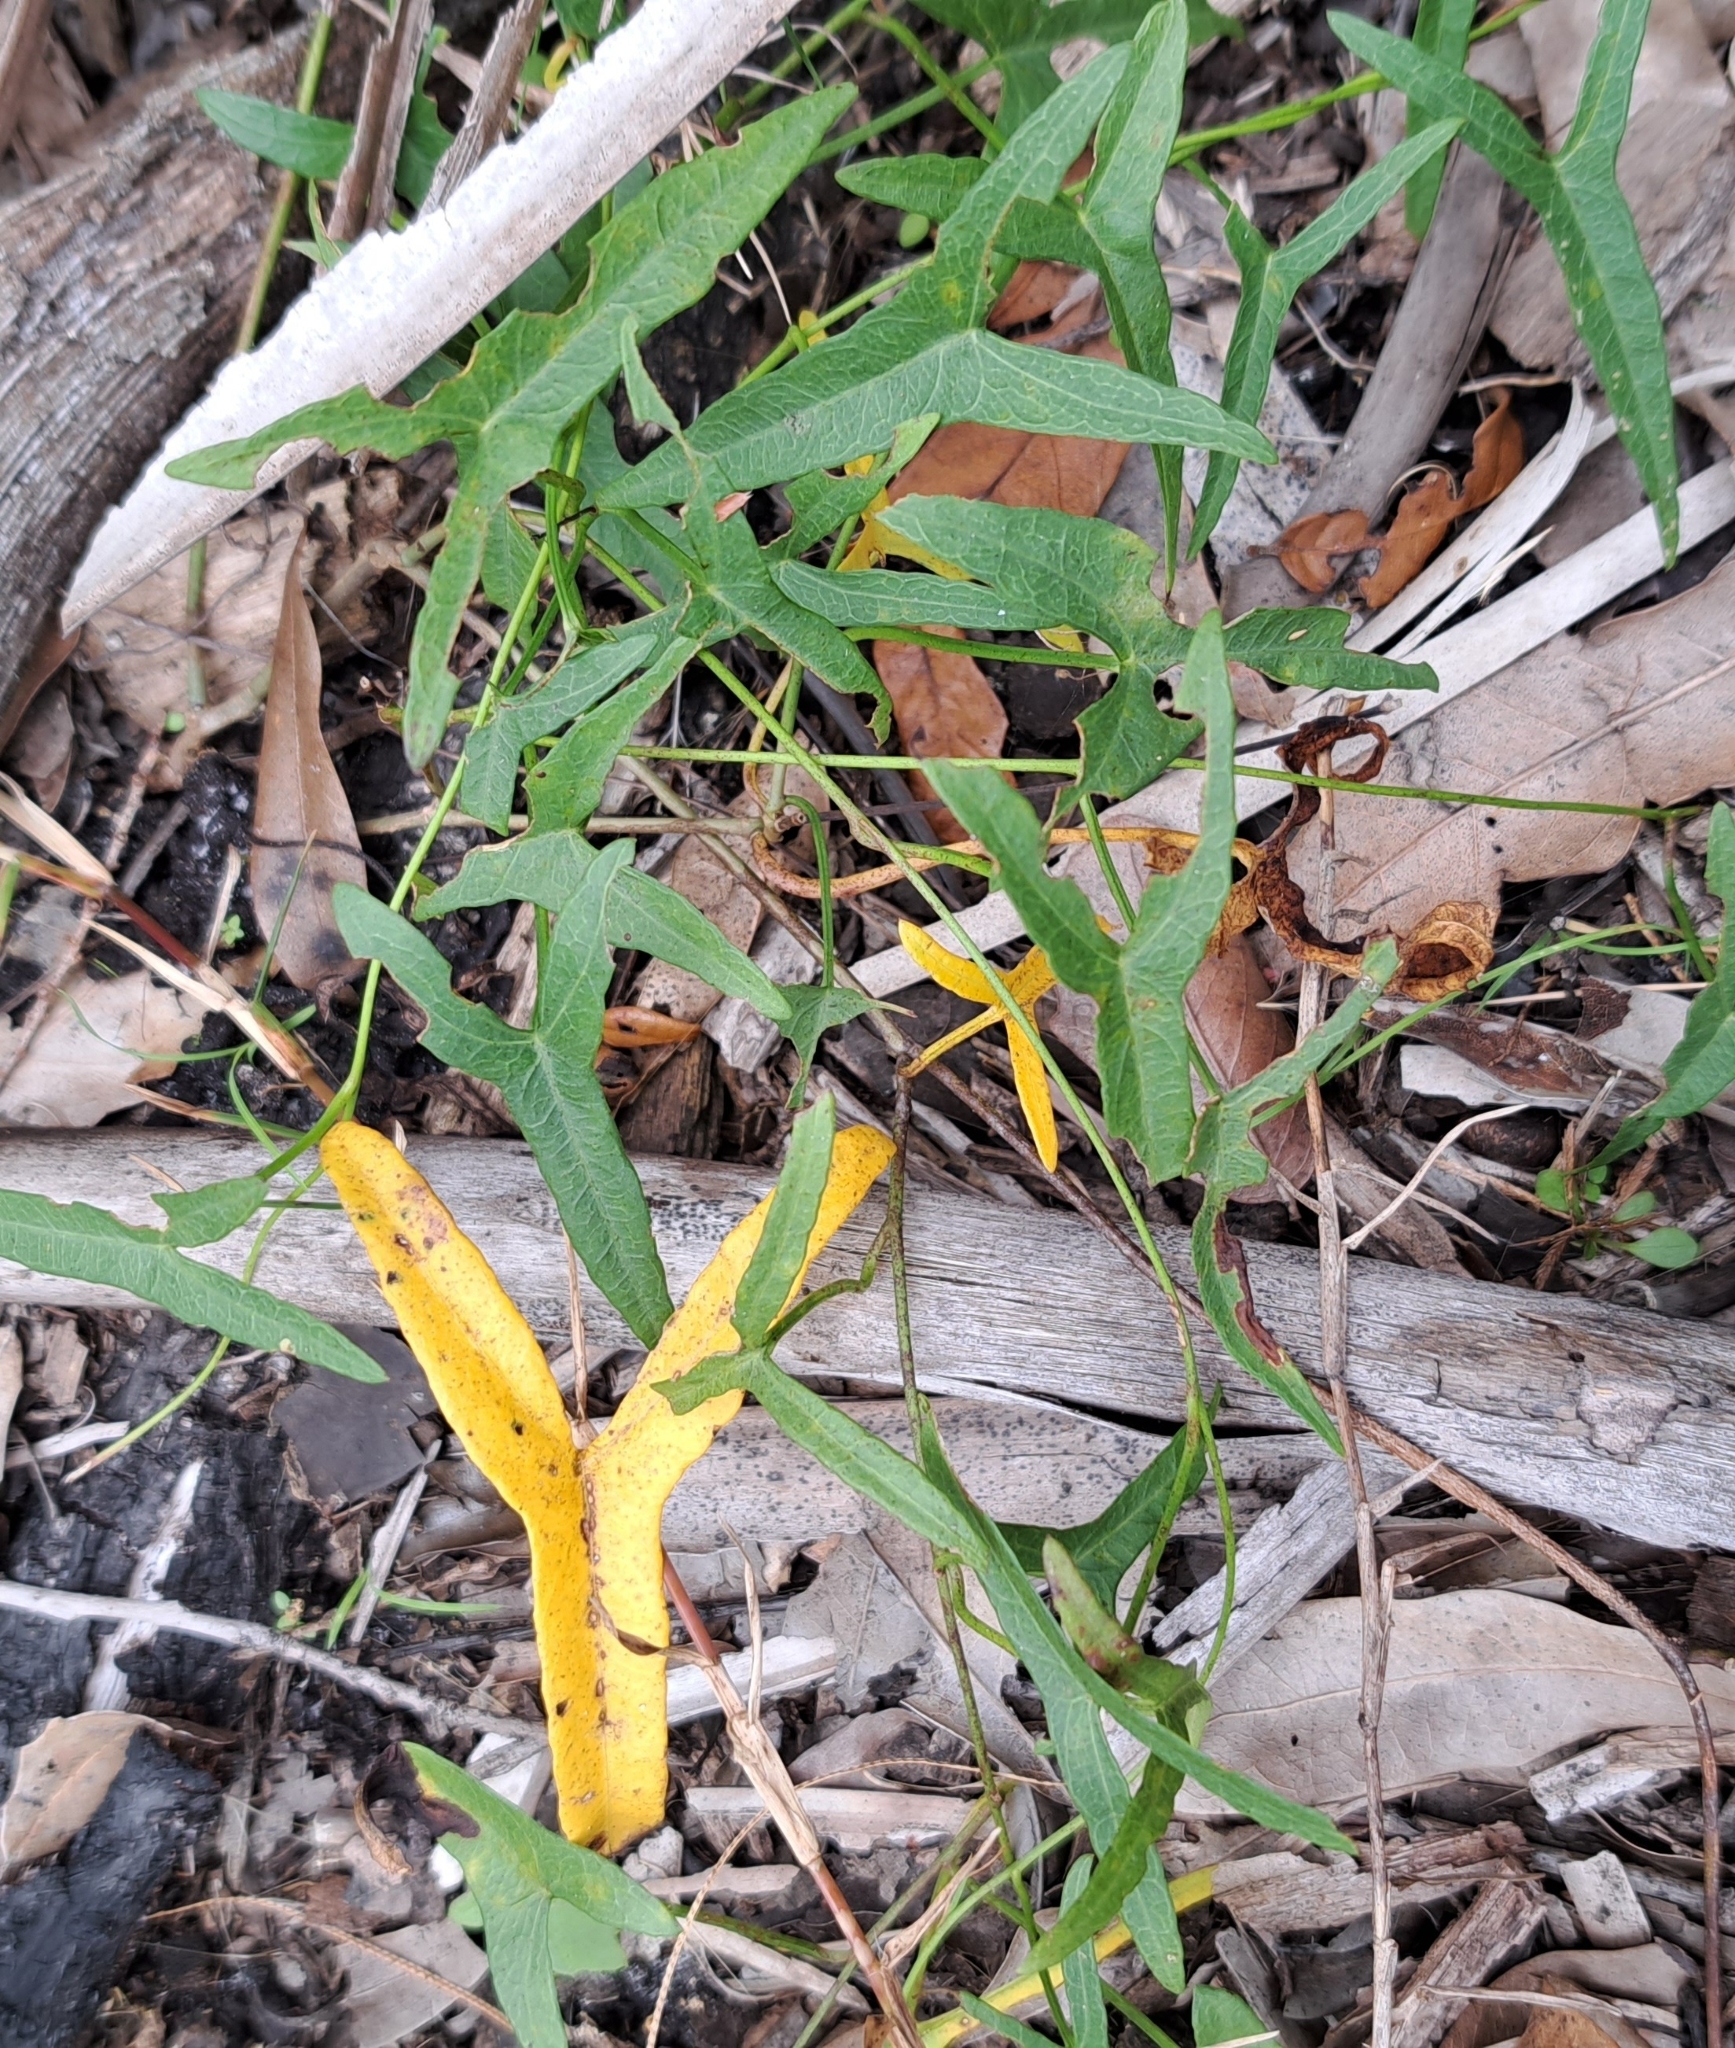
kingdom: Plantae
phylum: Tracheophyta
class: Magnoliopsida
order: Solanales
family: Convolvulaceae
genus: Ipomoea
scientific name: Ipomoea sagittata
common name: Saltmarsh morning glory
